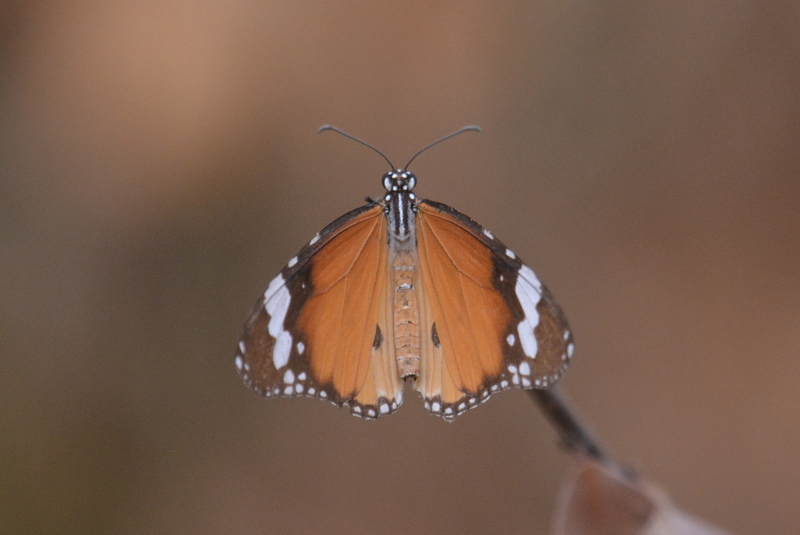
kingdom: Animalia
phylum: Arthropoda
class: Insecta
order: Lepidoptera
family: Nymphalidae
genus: Danaus
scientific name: Danaus chrysippus
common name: Plain tiger
